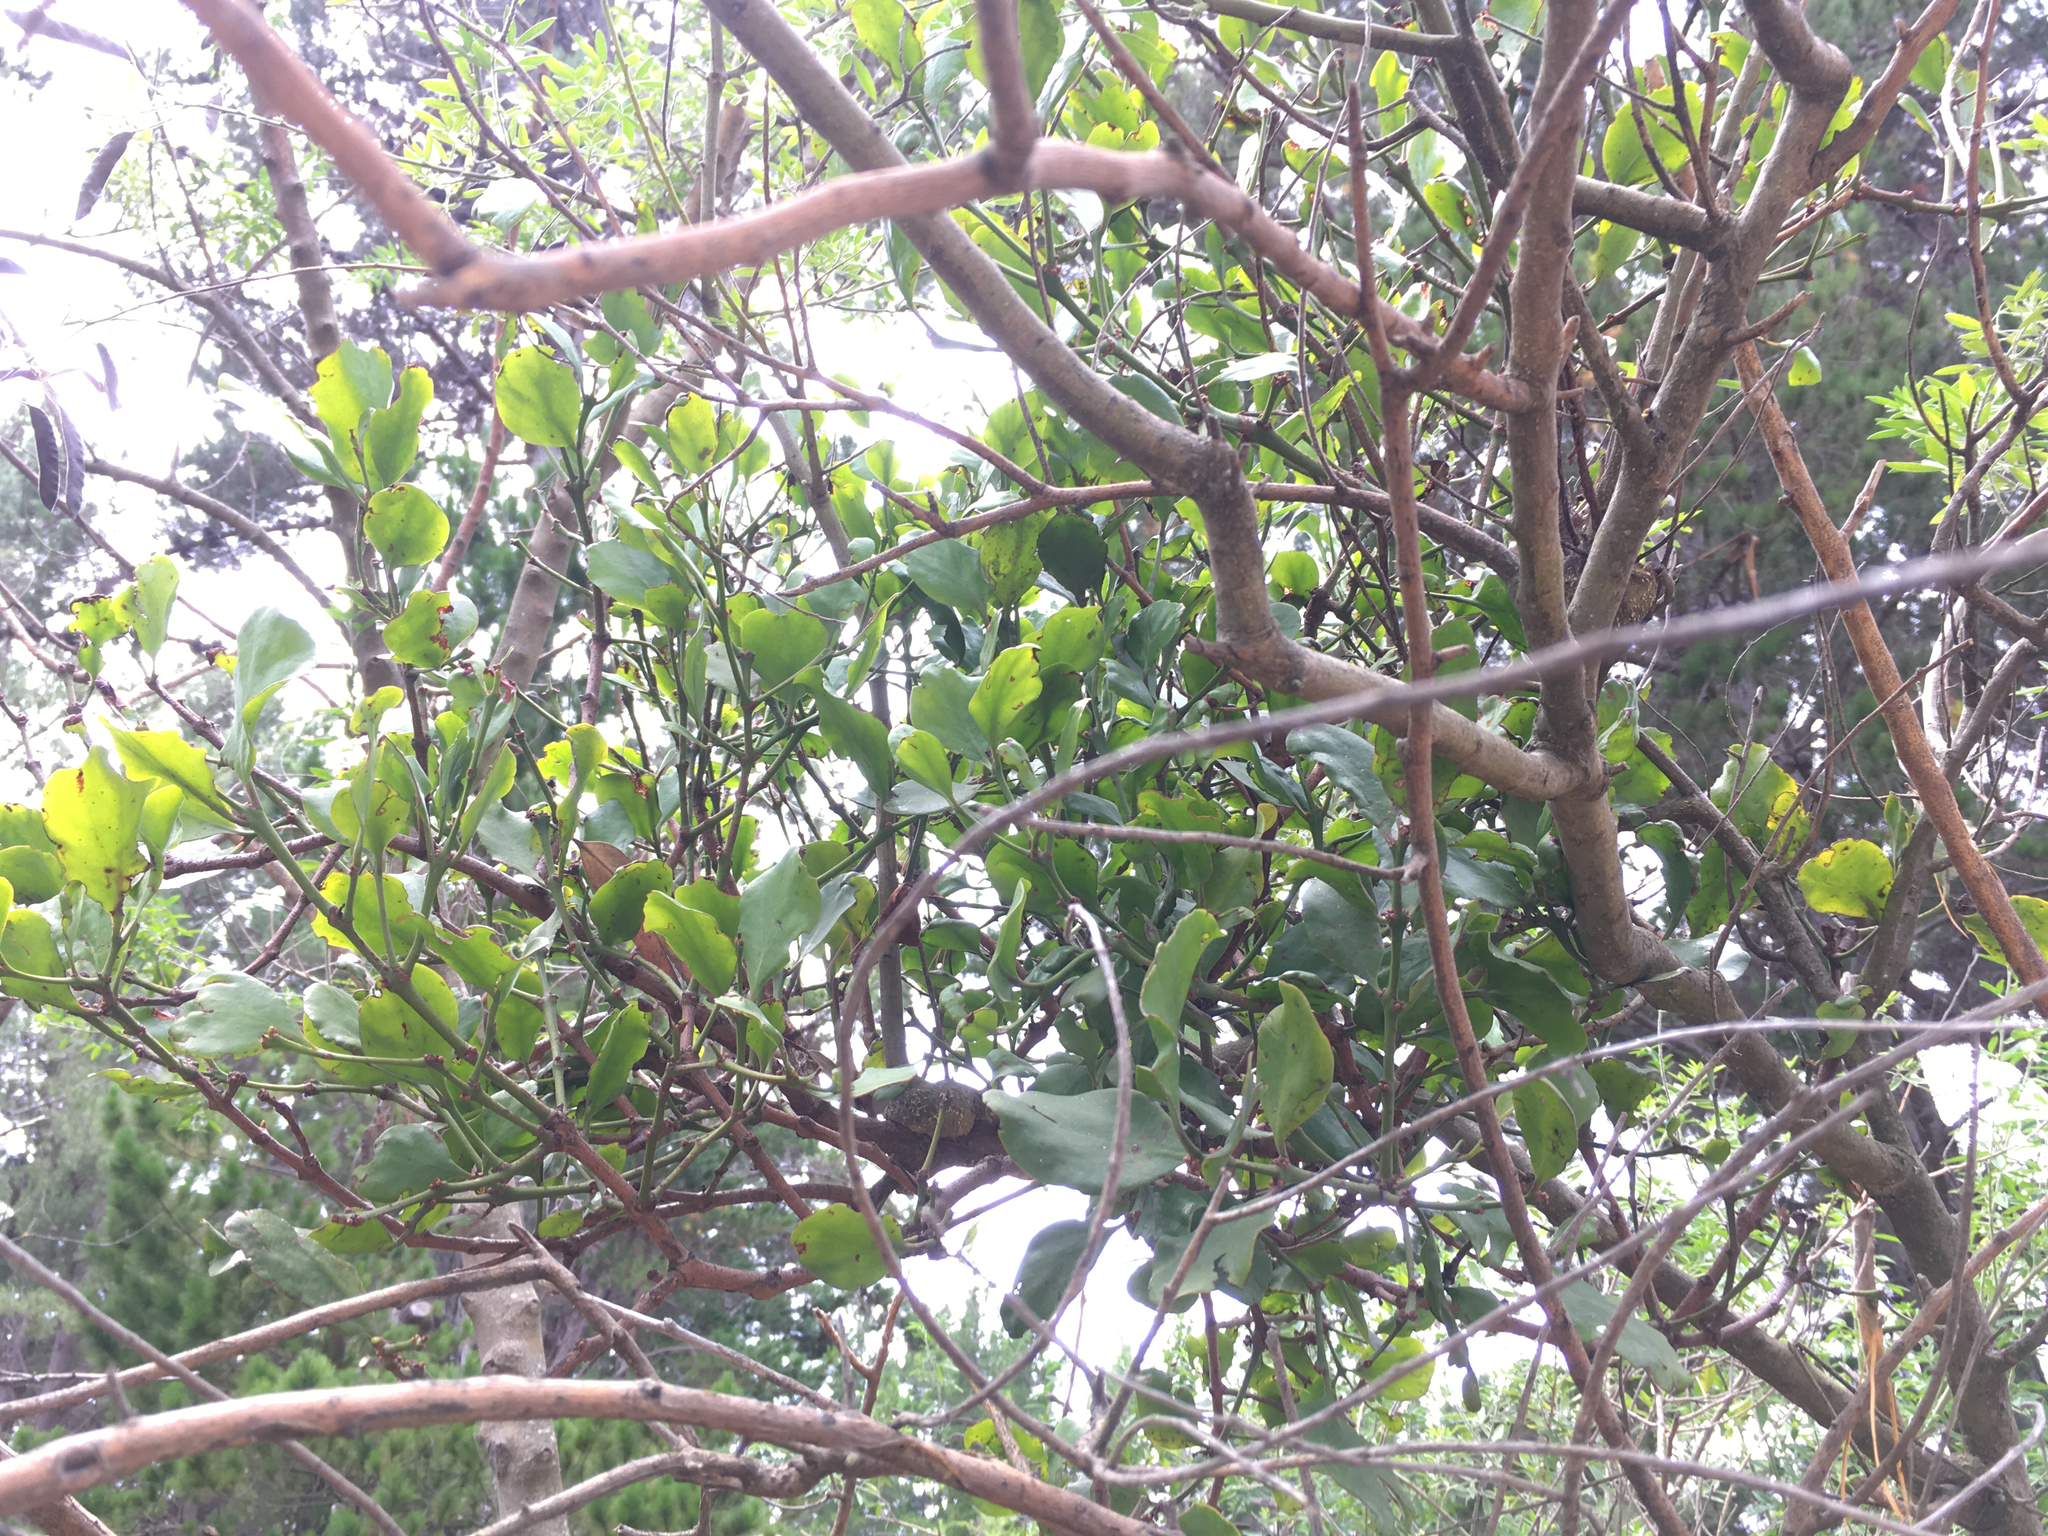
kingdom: Plantae
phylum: Tracheophyta
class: Magnoliopsida
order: Santalales
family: Loranthaceae
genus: Ileostylus
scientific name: Ileostylus micranthus
